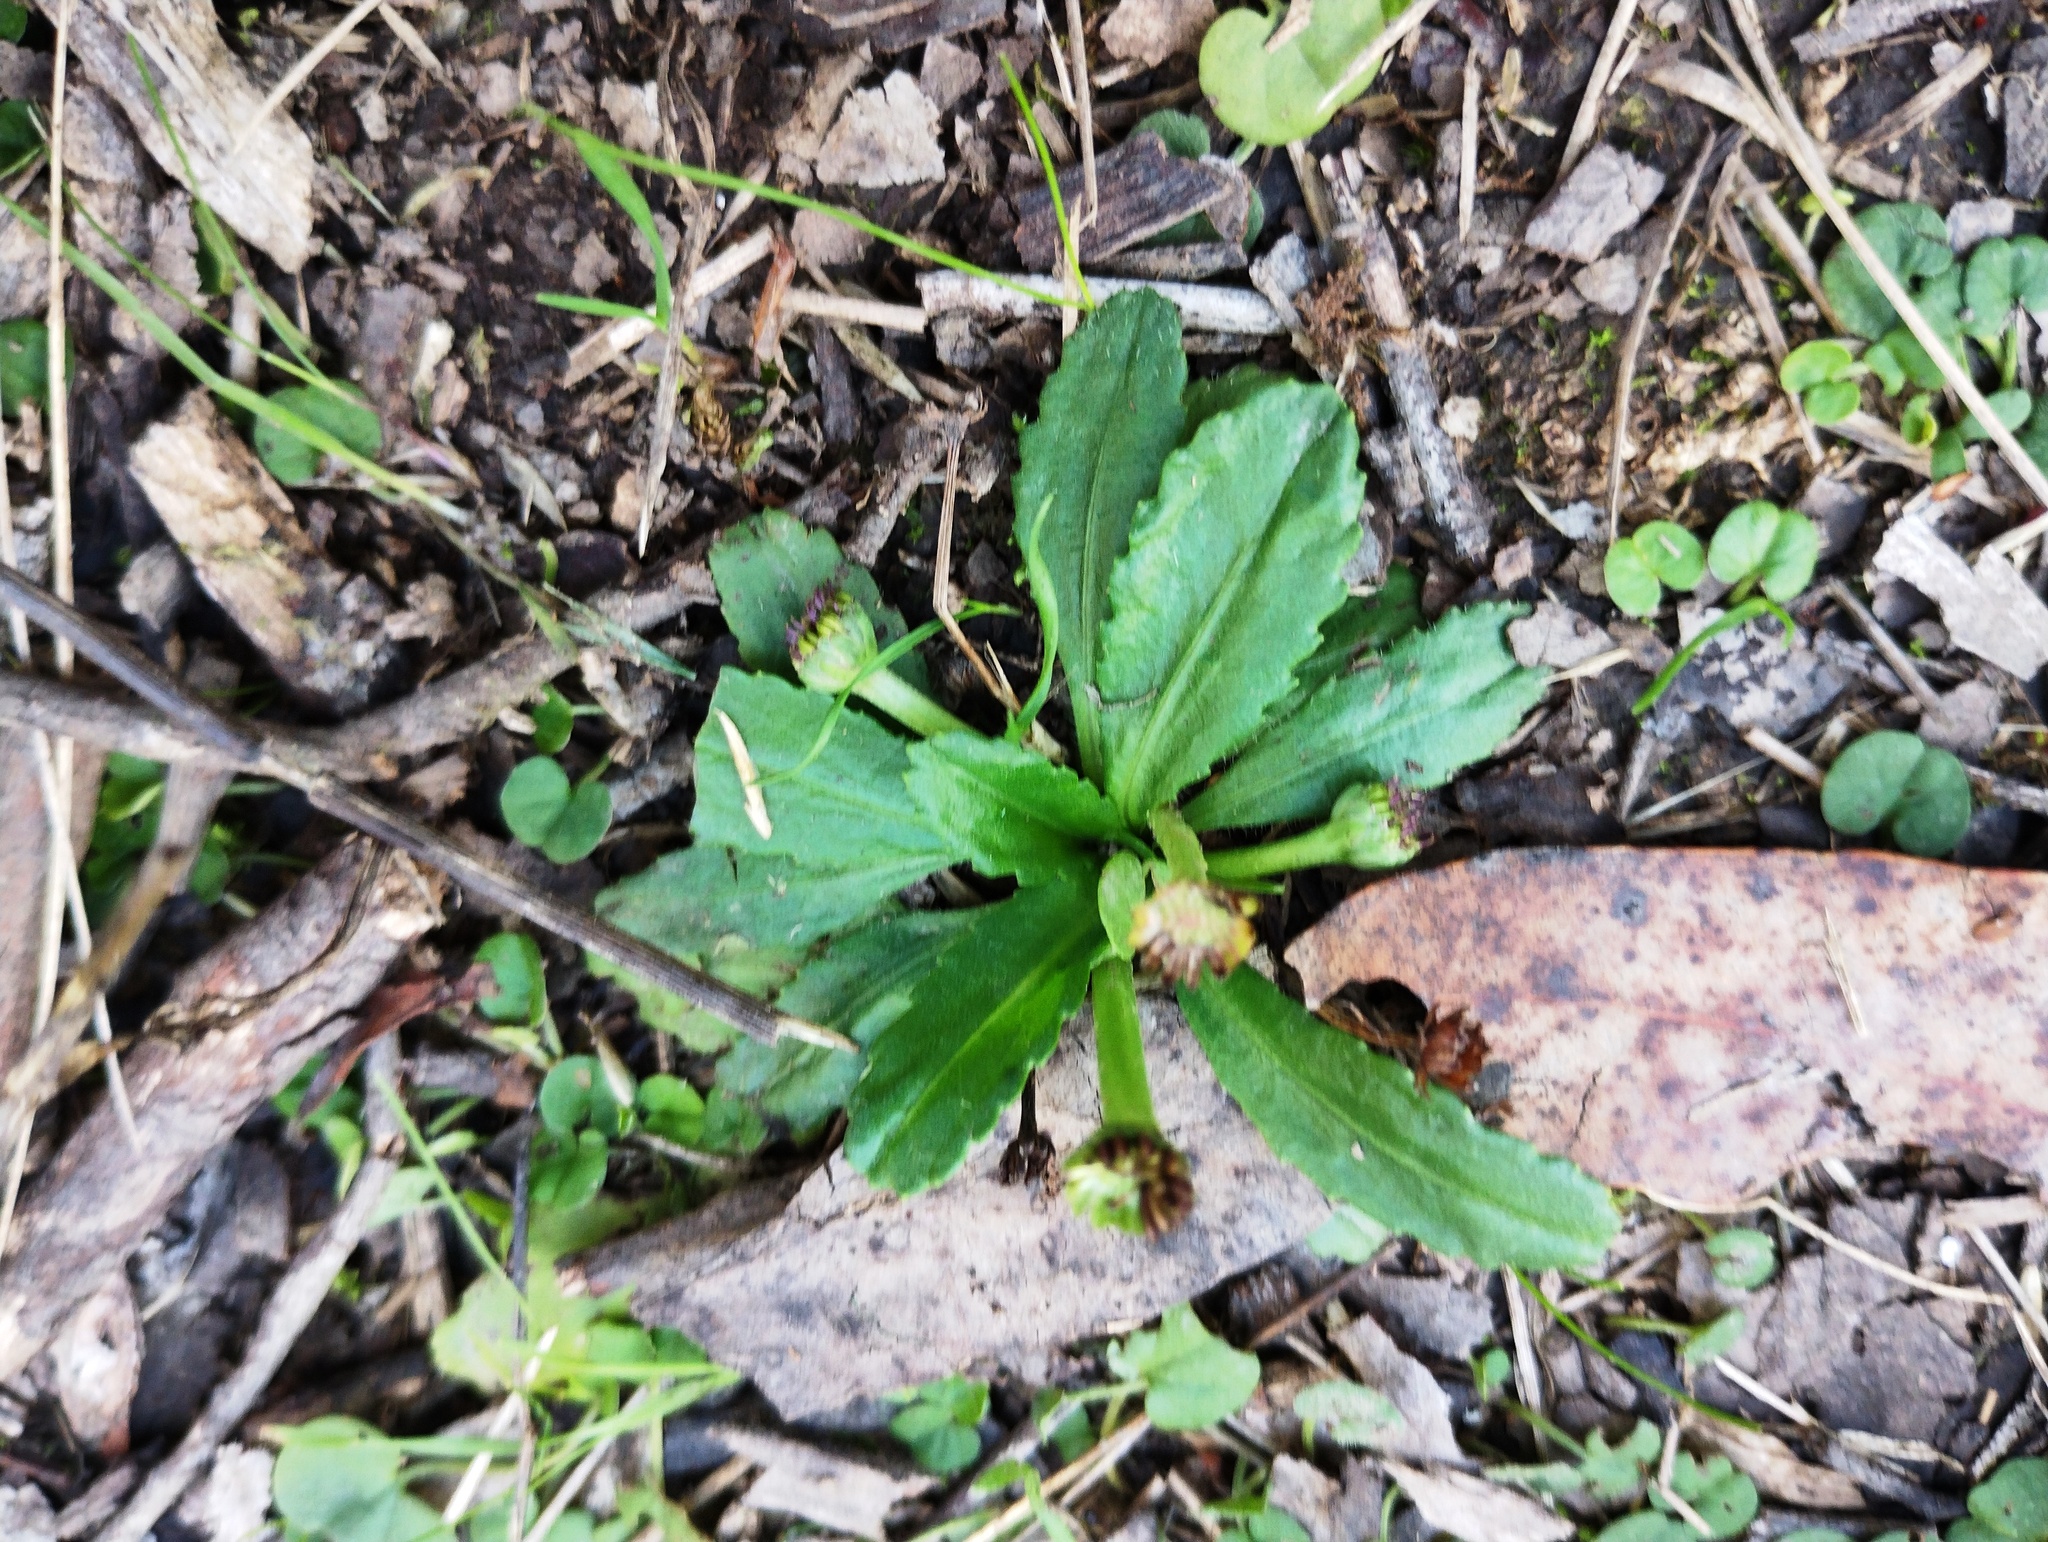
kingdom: Plantae
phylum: Tracheophyta
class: Magnoliopsida
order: Asterales
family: Asteraceae
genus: Solenogyne
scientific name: Solenogyne dominii
